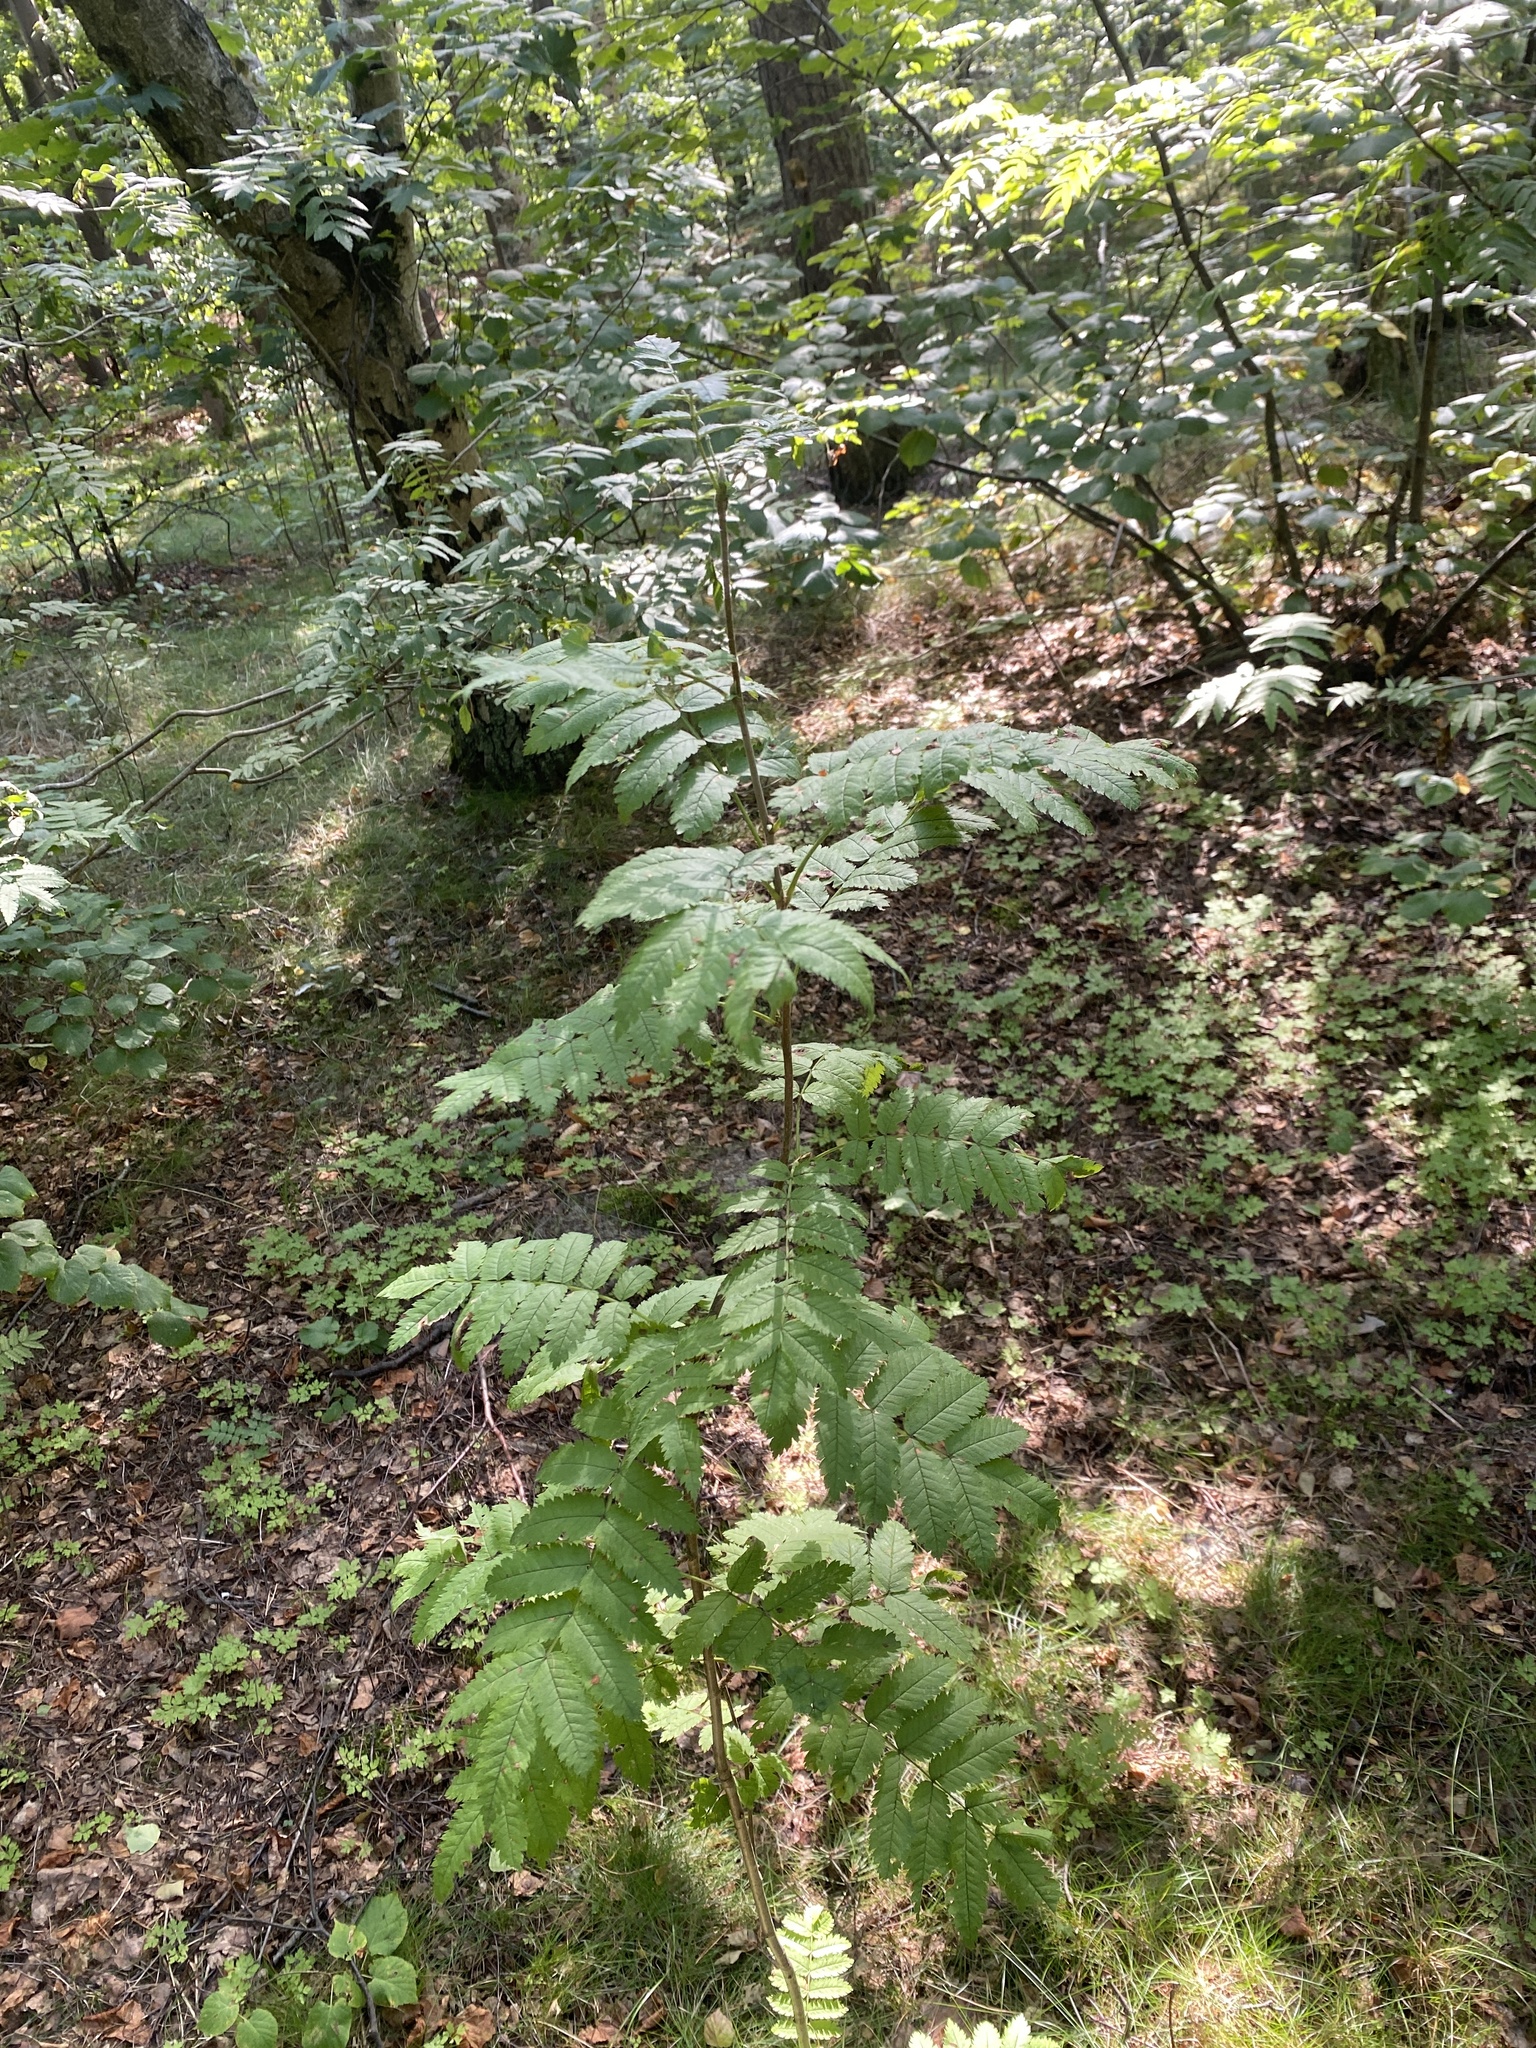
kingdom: Plantae
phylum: Tracheophyta
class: Magnoliopsida
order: Rosales
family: Rosaceae
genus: Sorbus
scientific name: Sorbus aucuparia
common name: Rowan
